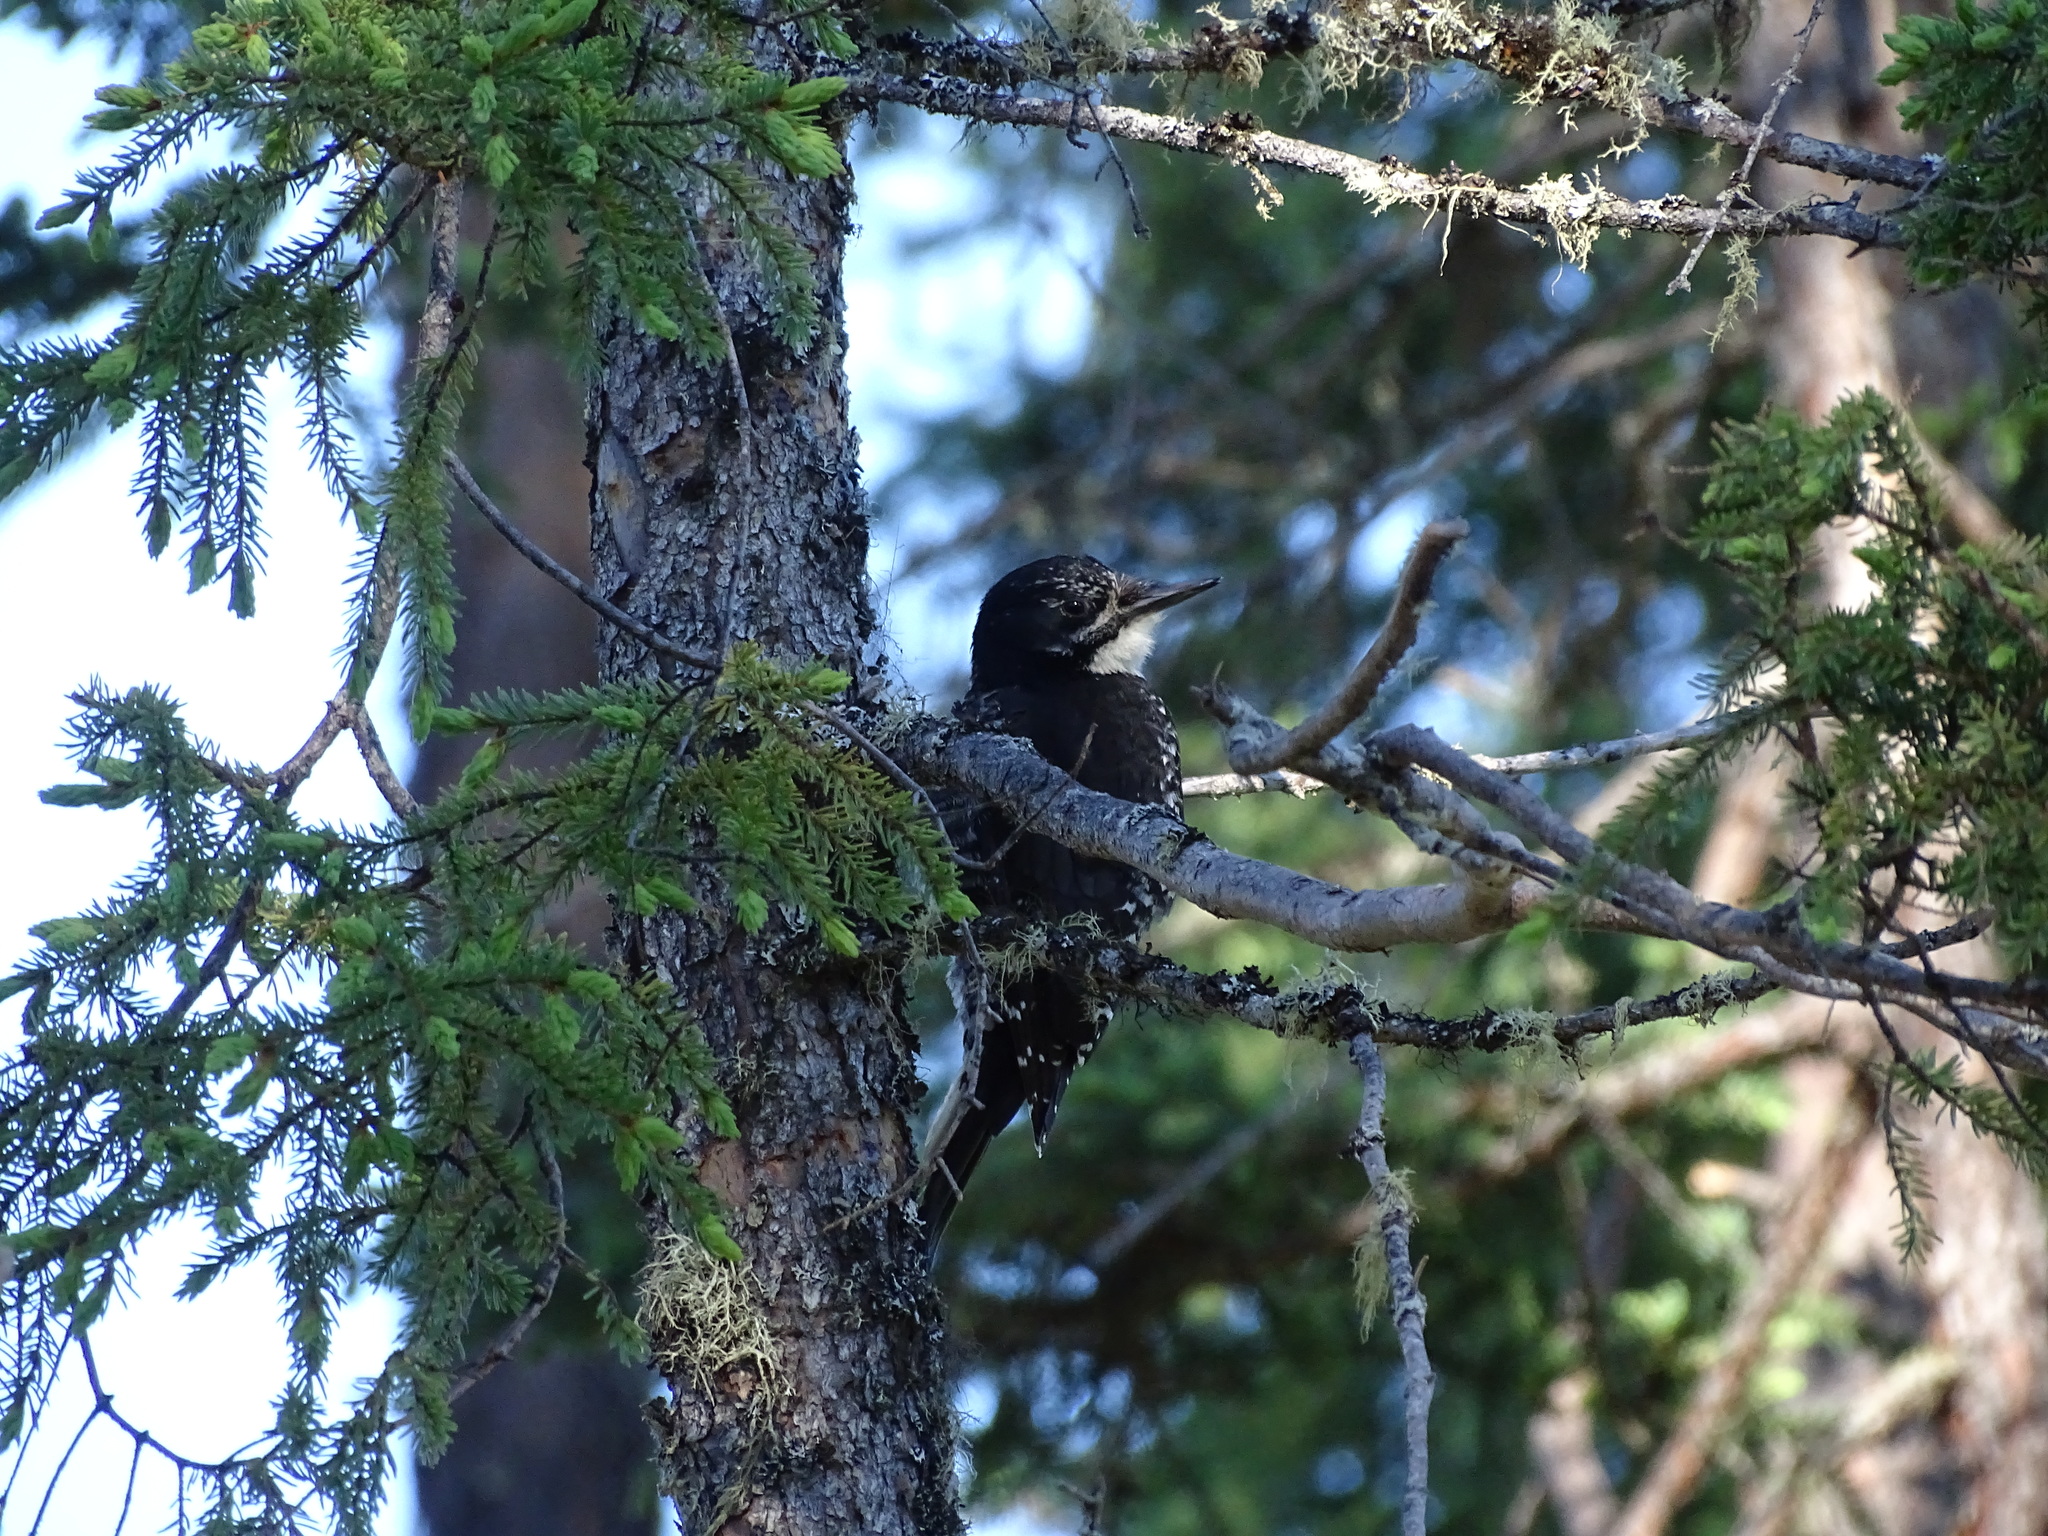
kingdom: Animalia
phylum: Chordata
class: Aves
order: Piciformes
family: Picidae
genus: Picoides
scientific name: Picoides dorsalis
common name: American three-toed woodpecker
